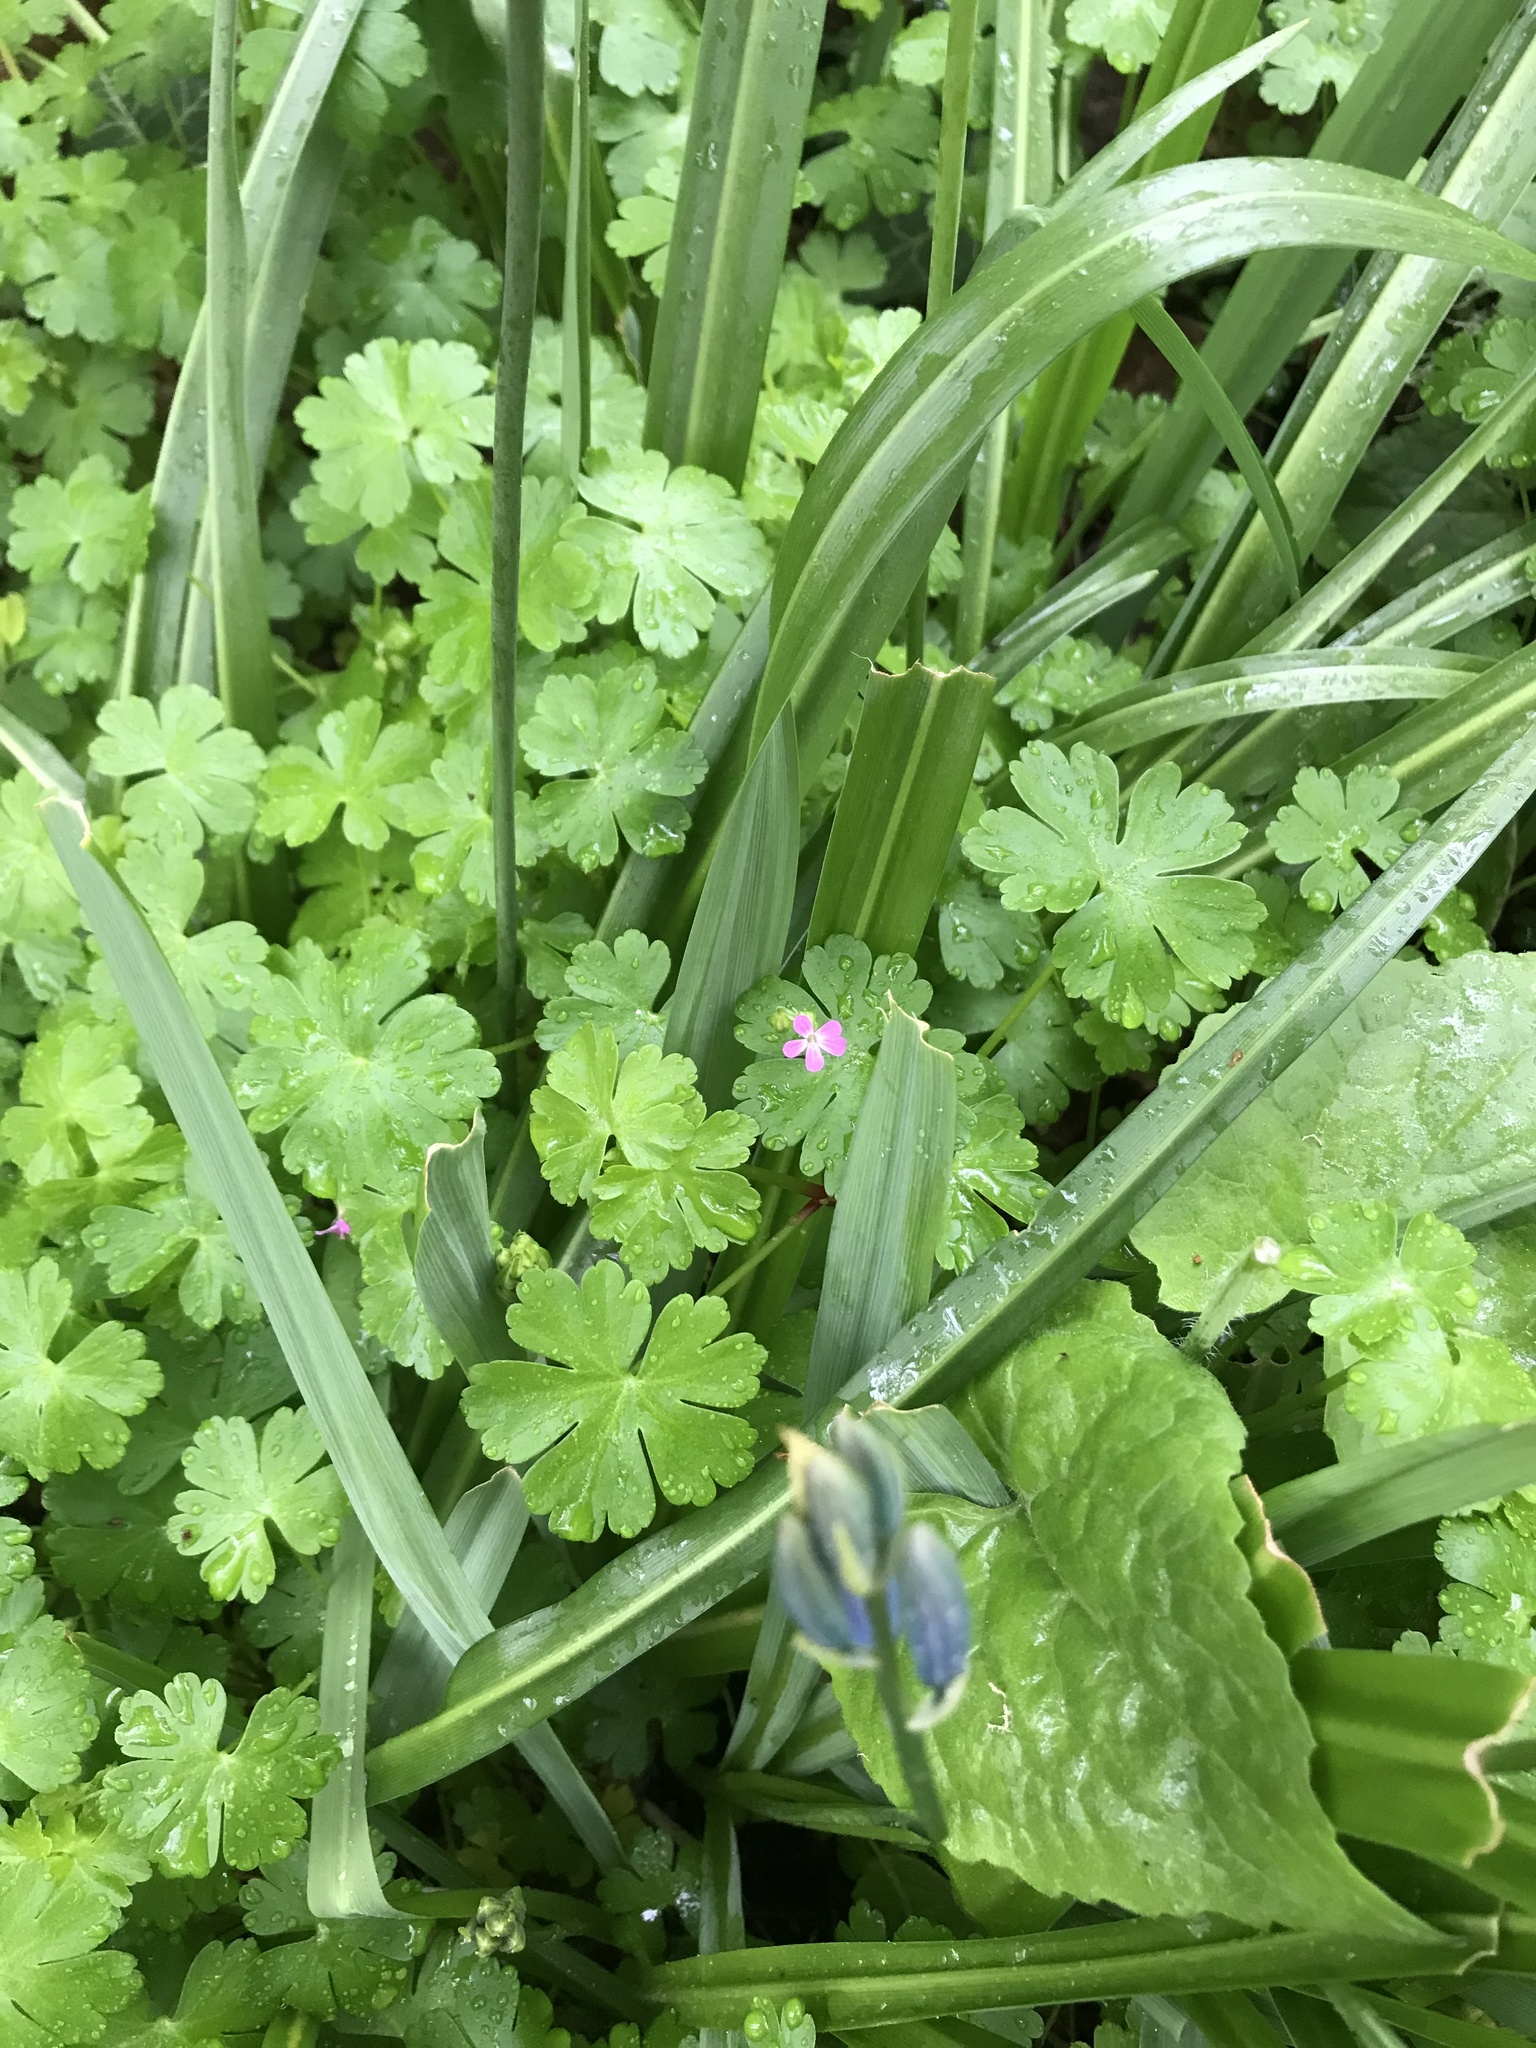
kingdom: Plantae
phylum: Tracheophyta
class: Magnoliopsida
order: Geraniales
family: Geraniaceae
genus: Geranium
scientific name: Geranium lucidum
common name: Shining crane's-bill
